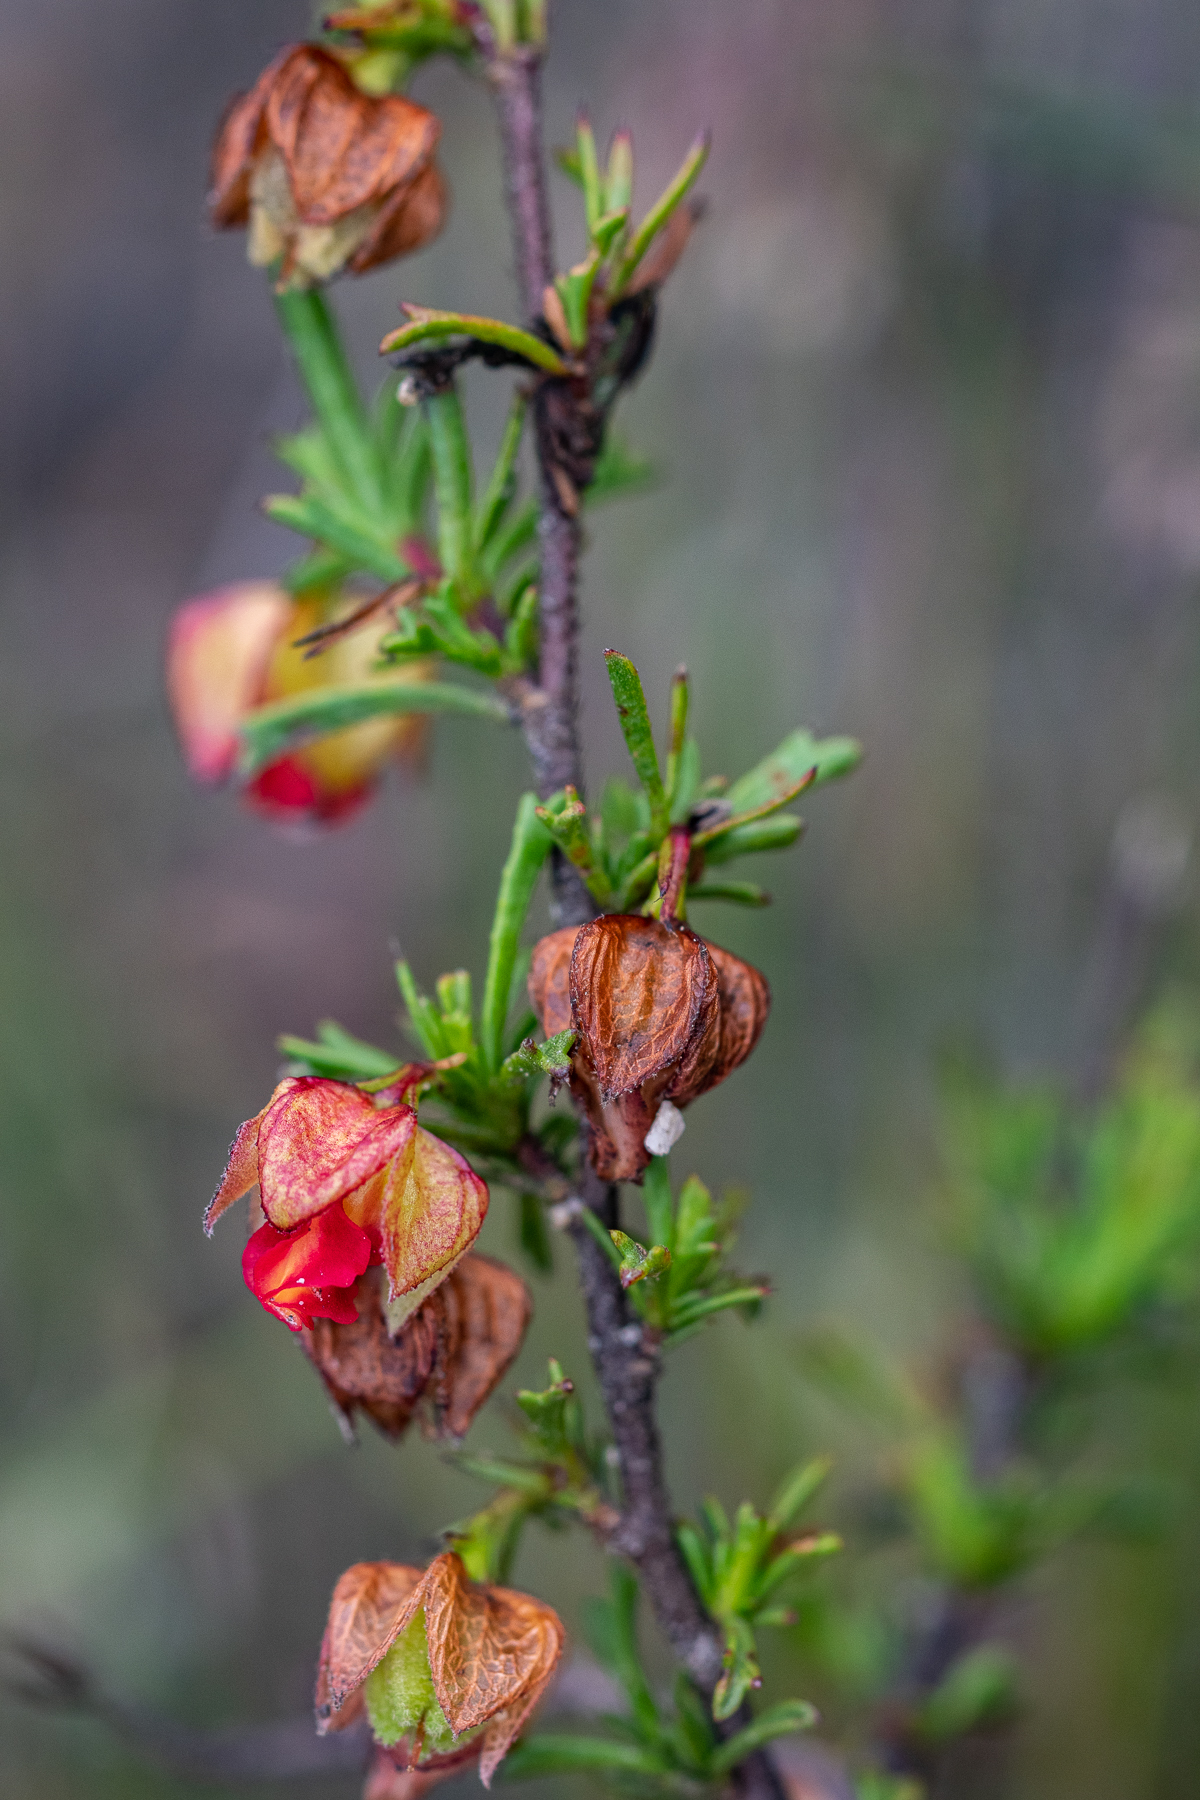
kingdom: Plantae
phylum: Tracheophyta
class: Magnoliopsida
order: Malvales
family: Malvaceae
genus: Hermannia
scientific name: Hermannia angularis
